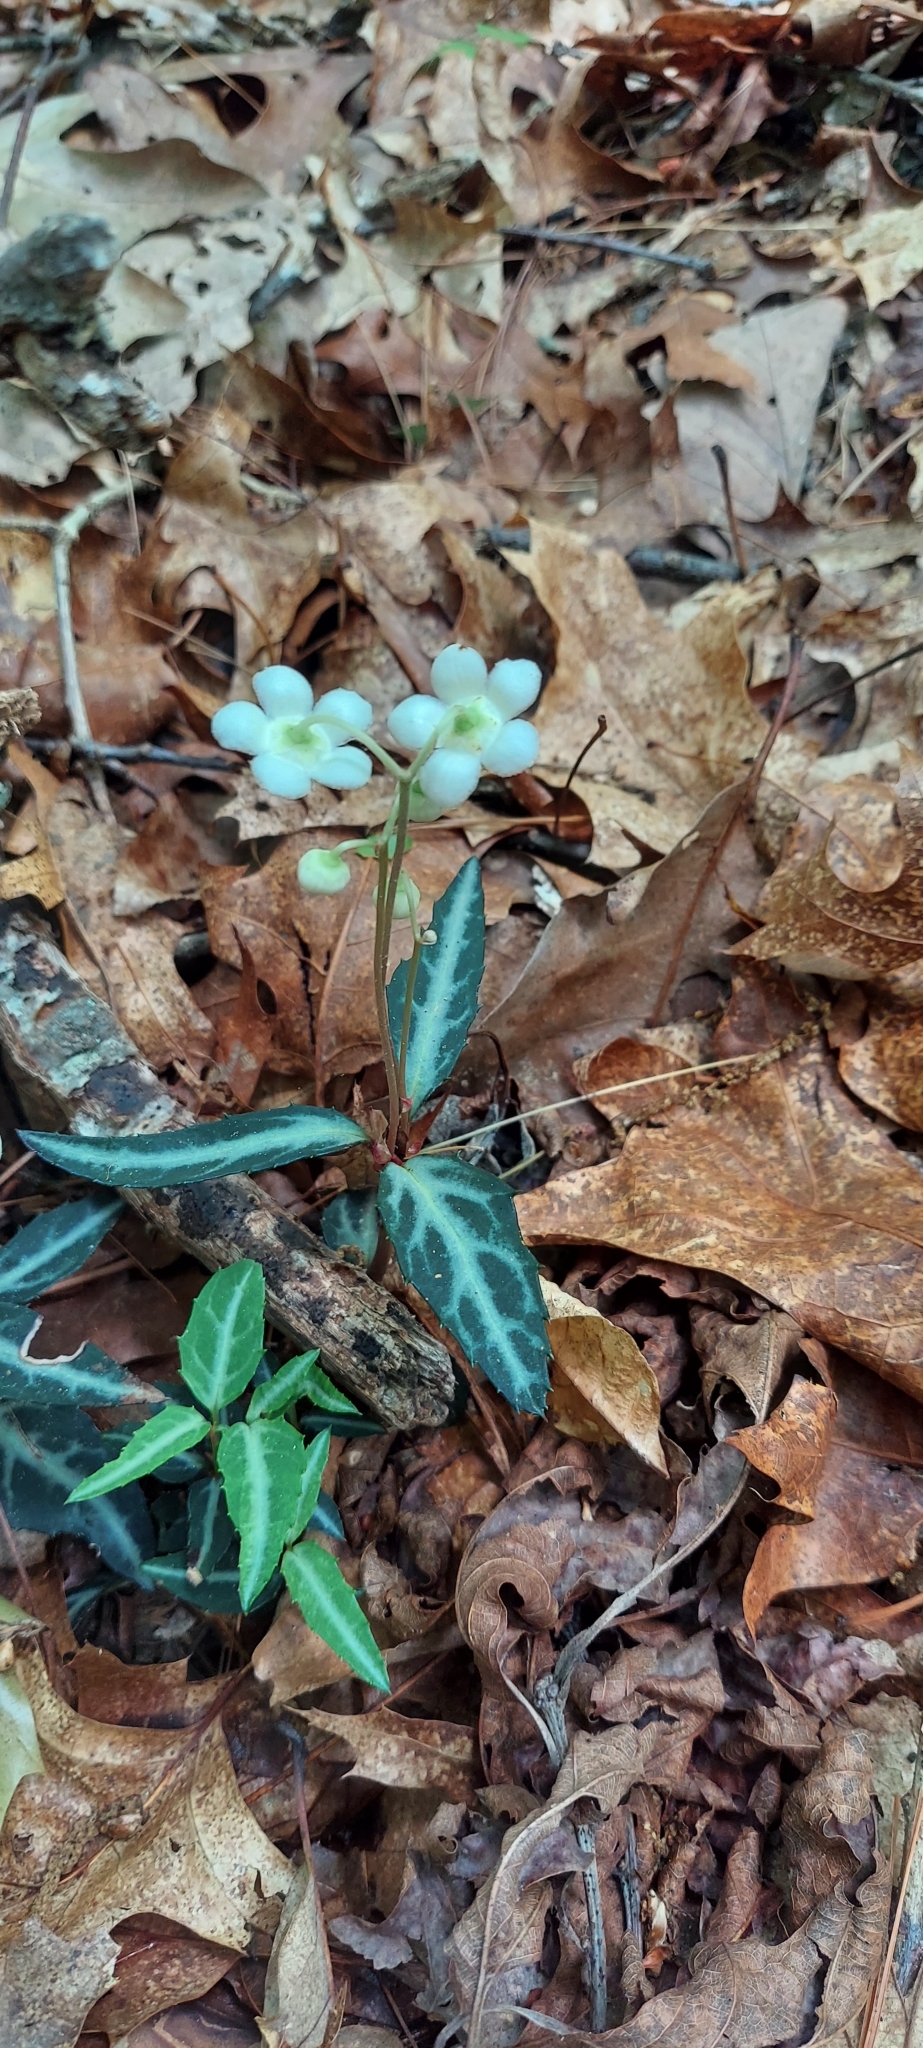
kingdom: Plantae
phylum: Tracheophyta
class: Magnoliopsida
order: Ericales
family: Ericaceae
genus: Chimaphila
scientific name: Chimaphila maculata
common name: Spotted pipsissewa
